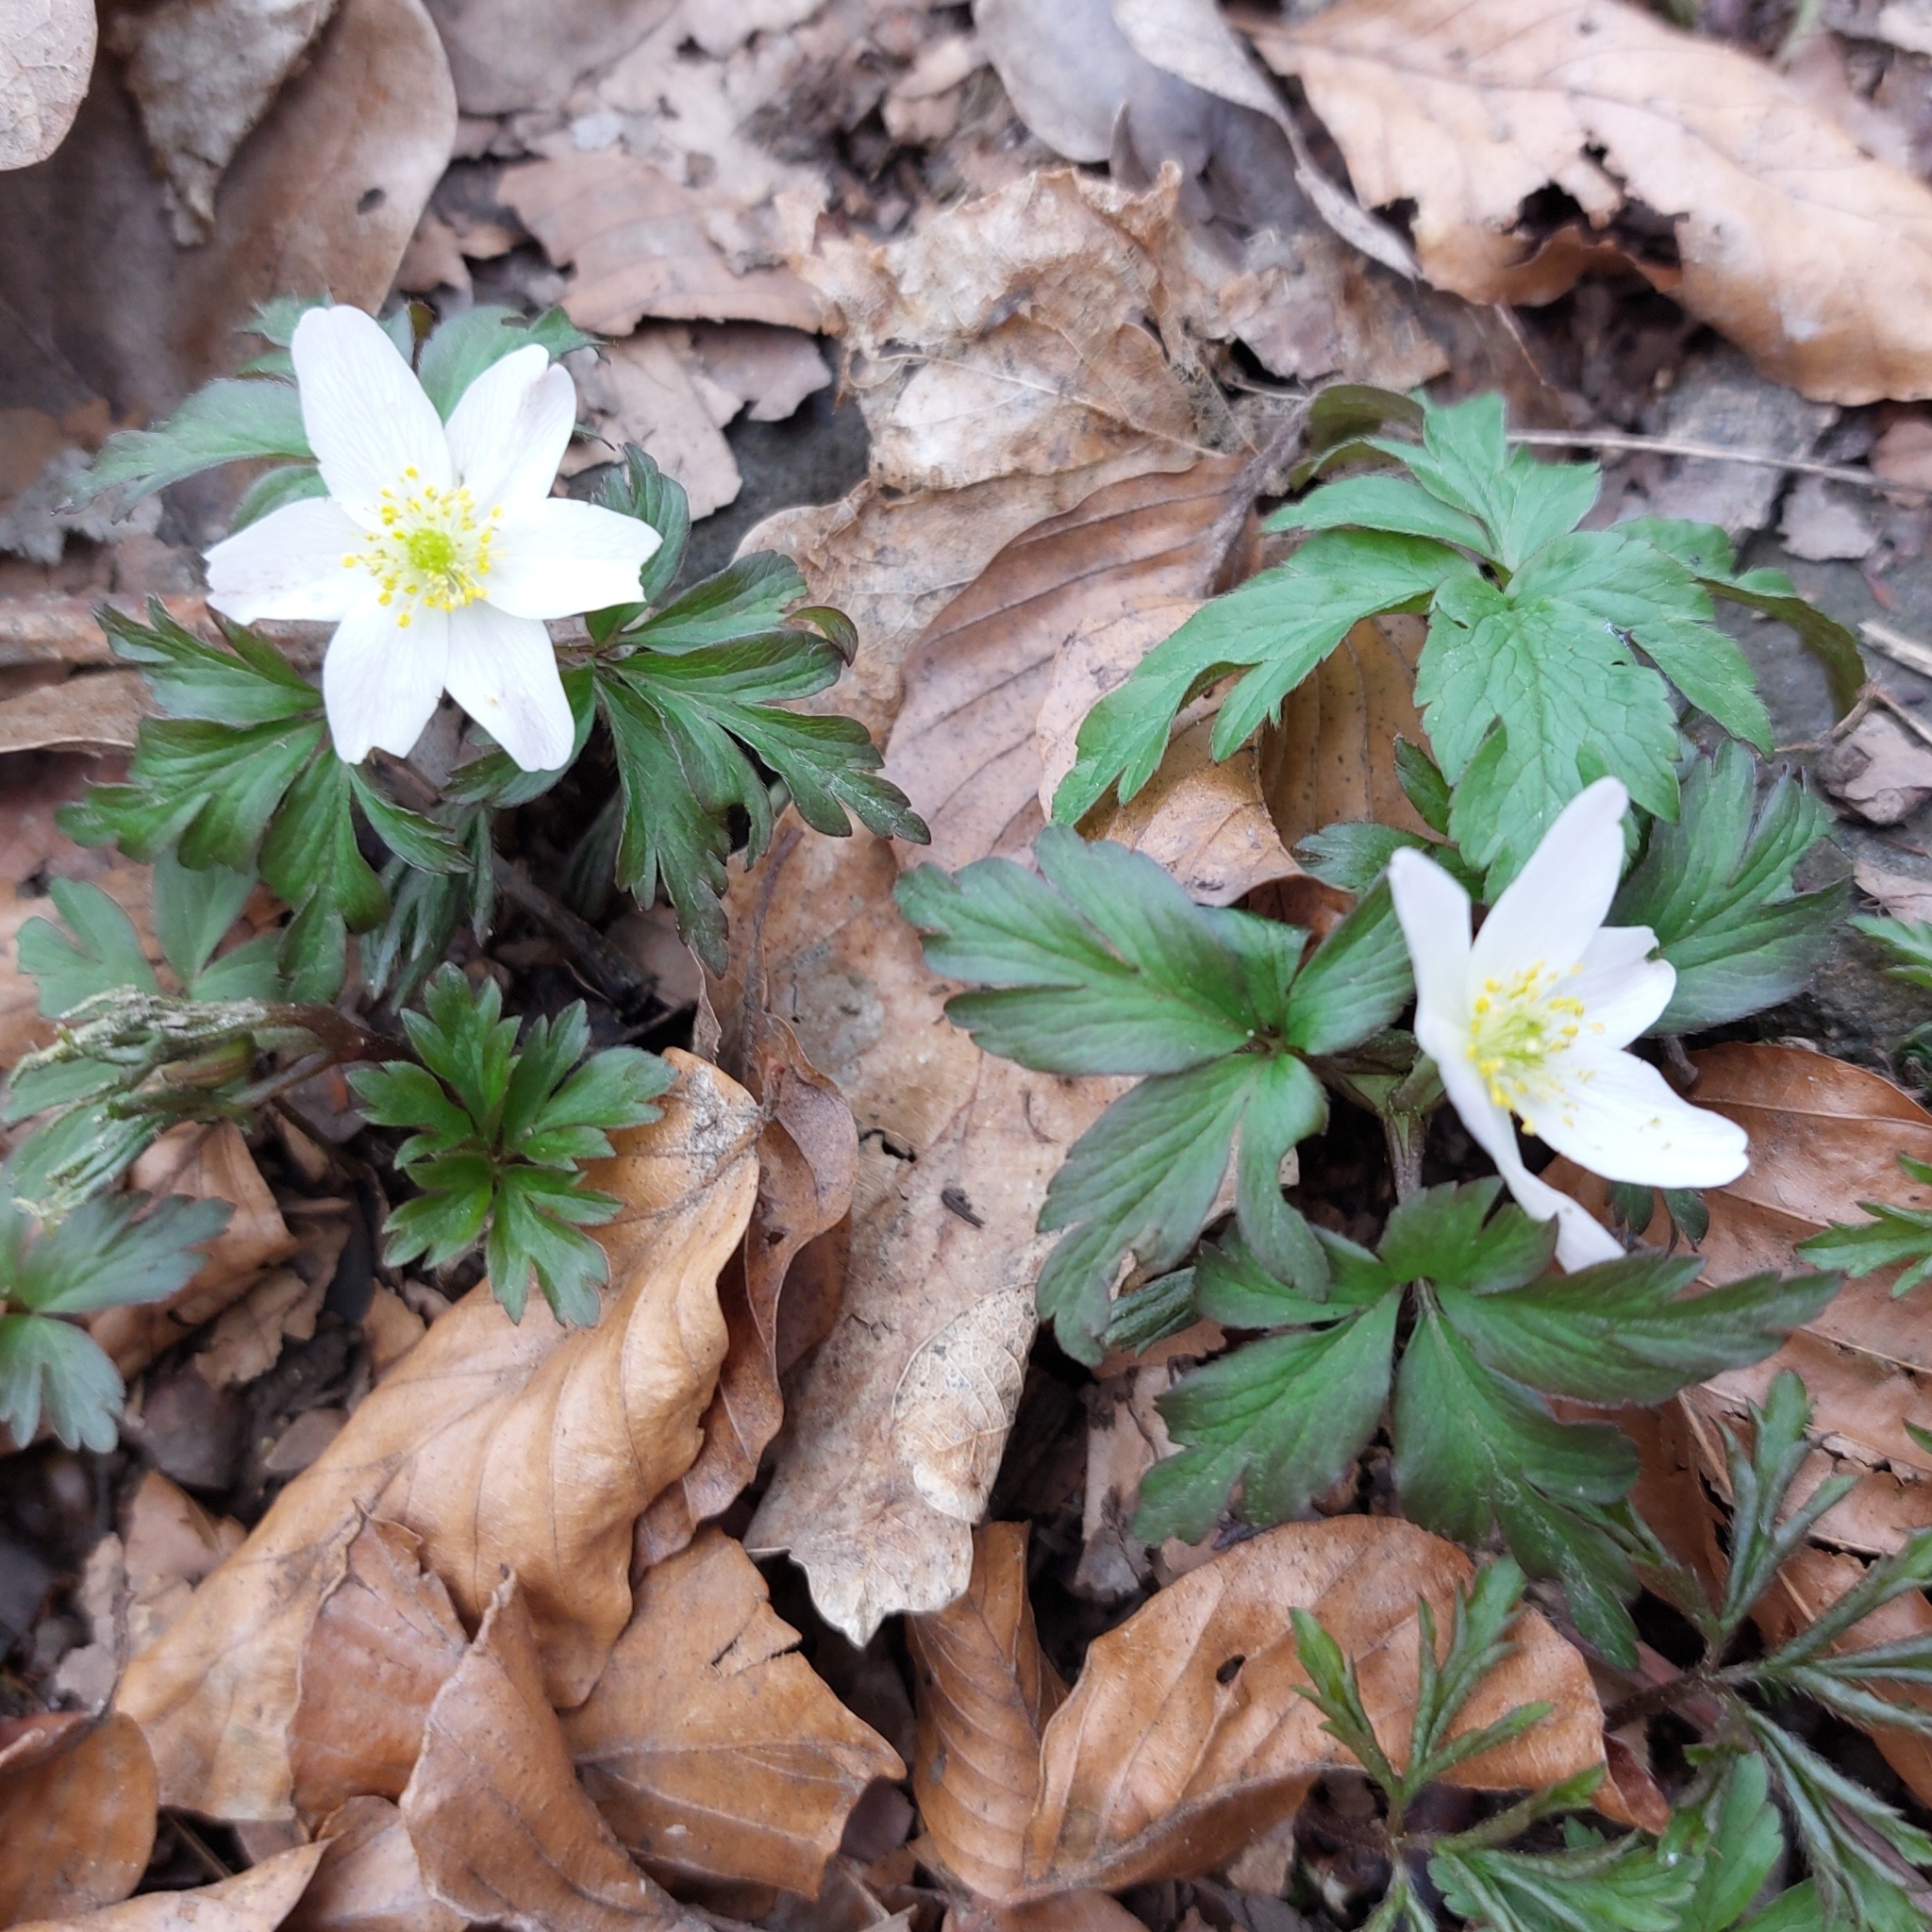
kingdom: Plantae
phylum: Tracheophyta
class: Magnoliopsida
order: Ranunculales
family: Ranunculaceae
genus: Anemone
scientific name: Anemone nemorosa
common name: Wood anemone
